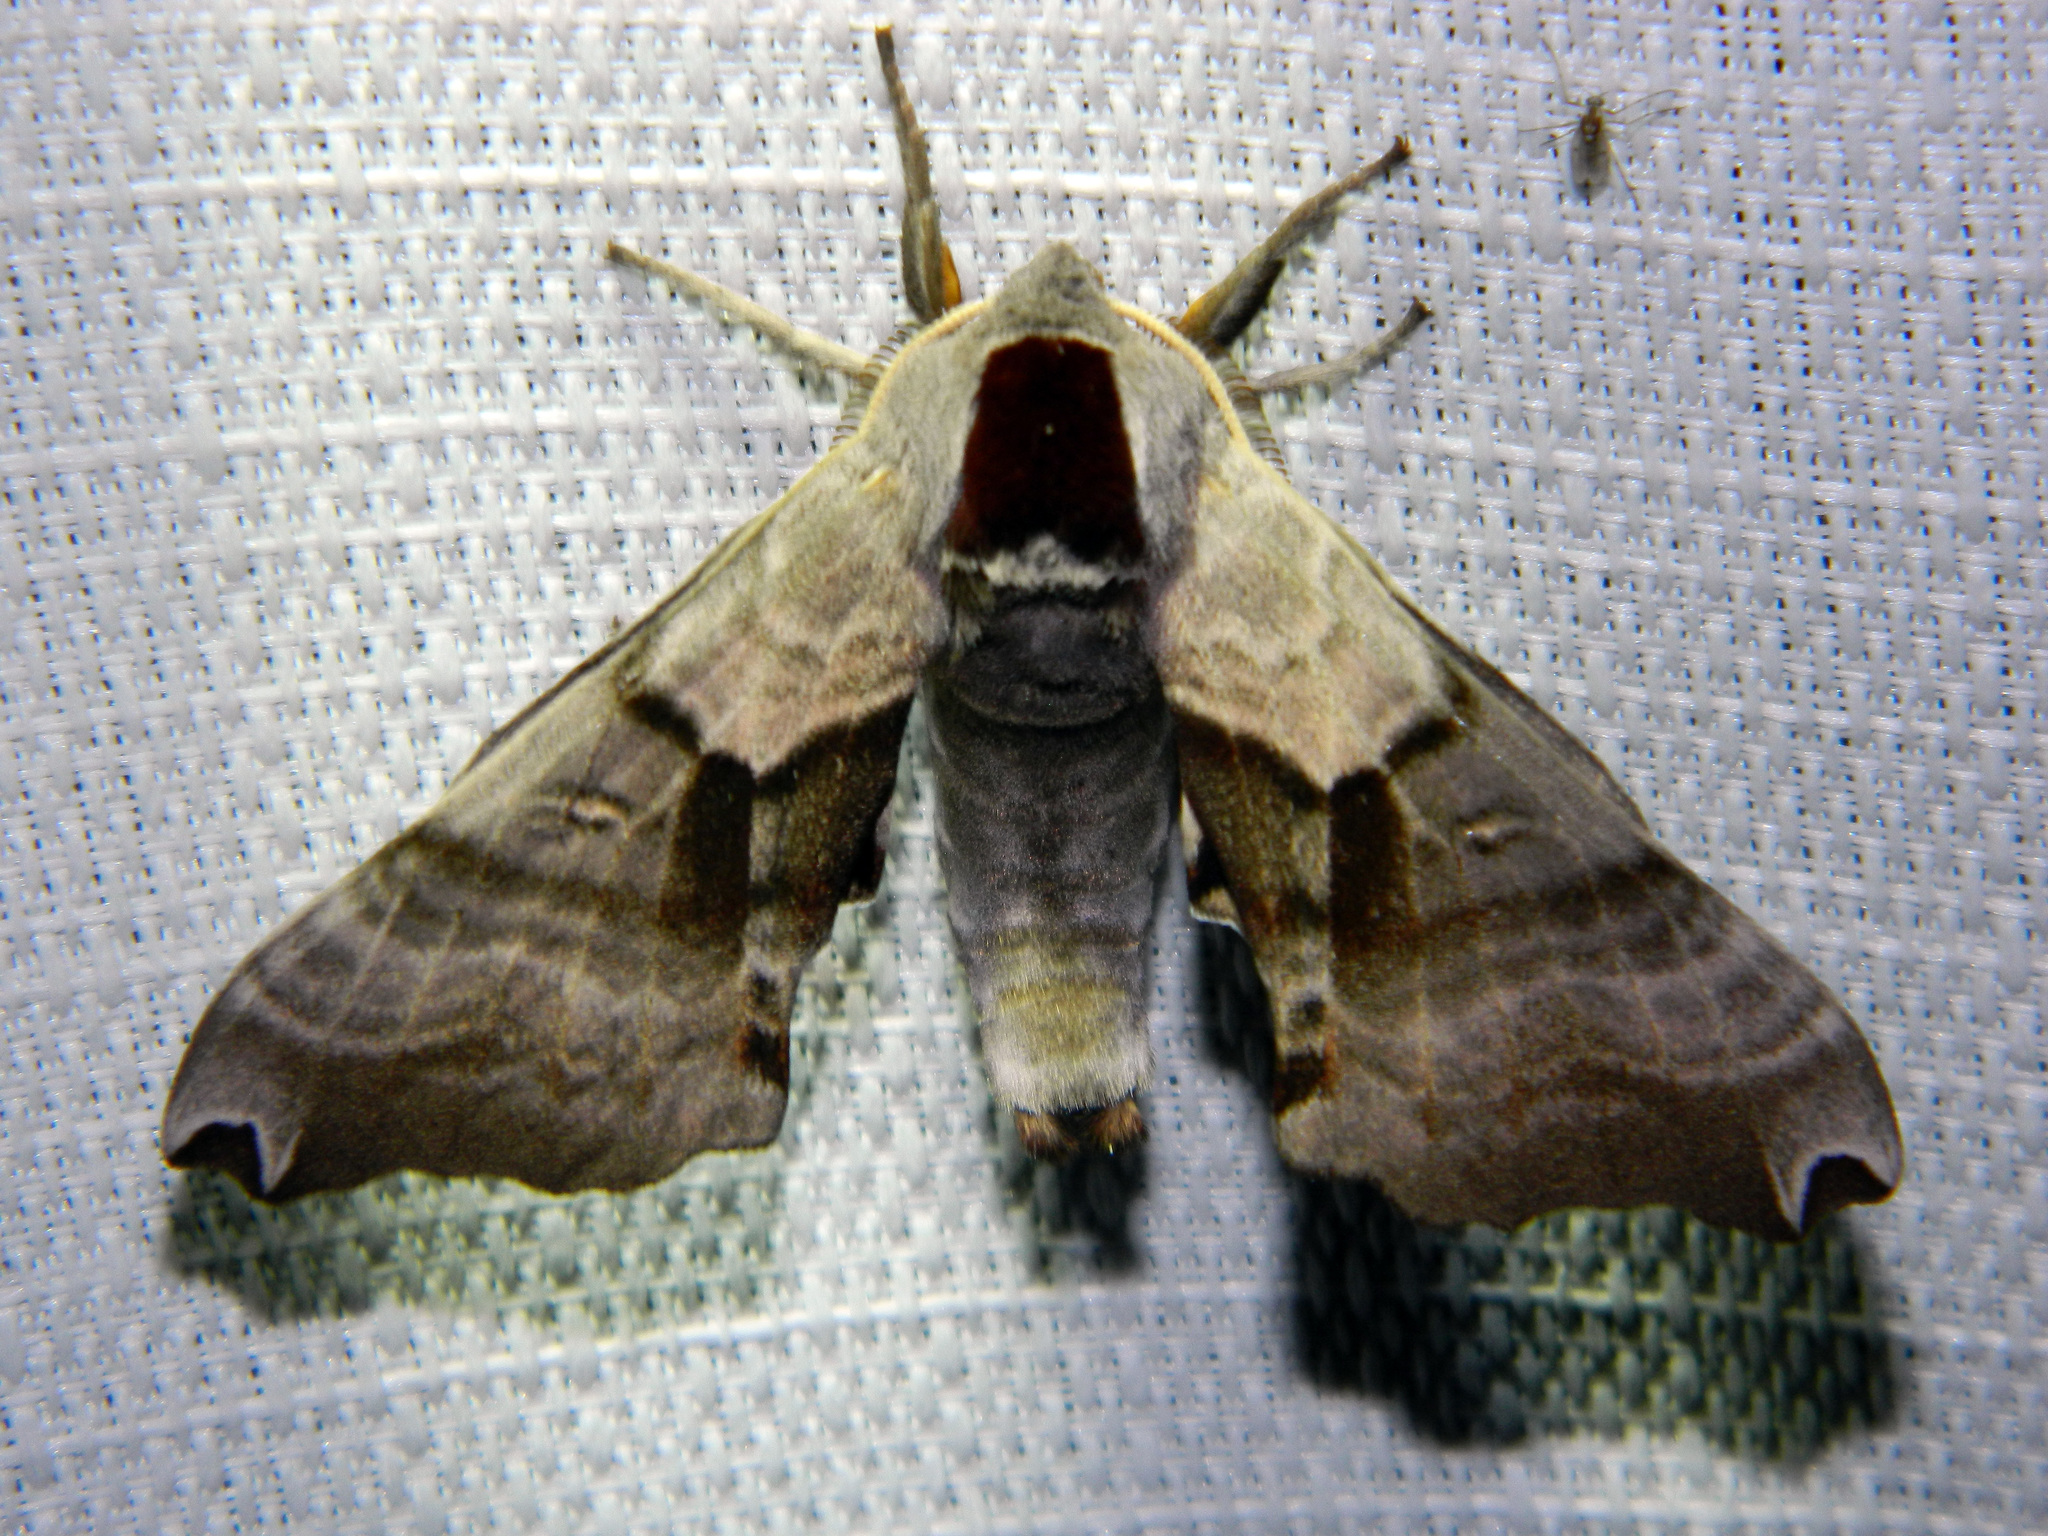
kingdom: Animalia
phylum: Arthropoda
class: Insecta
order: Lepidoptera
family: Sphingidae
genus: Smerinthus
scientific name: Smerinthus jamaicensis
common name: Twin spotted sphinx
